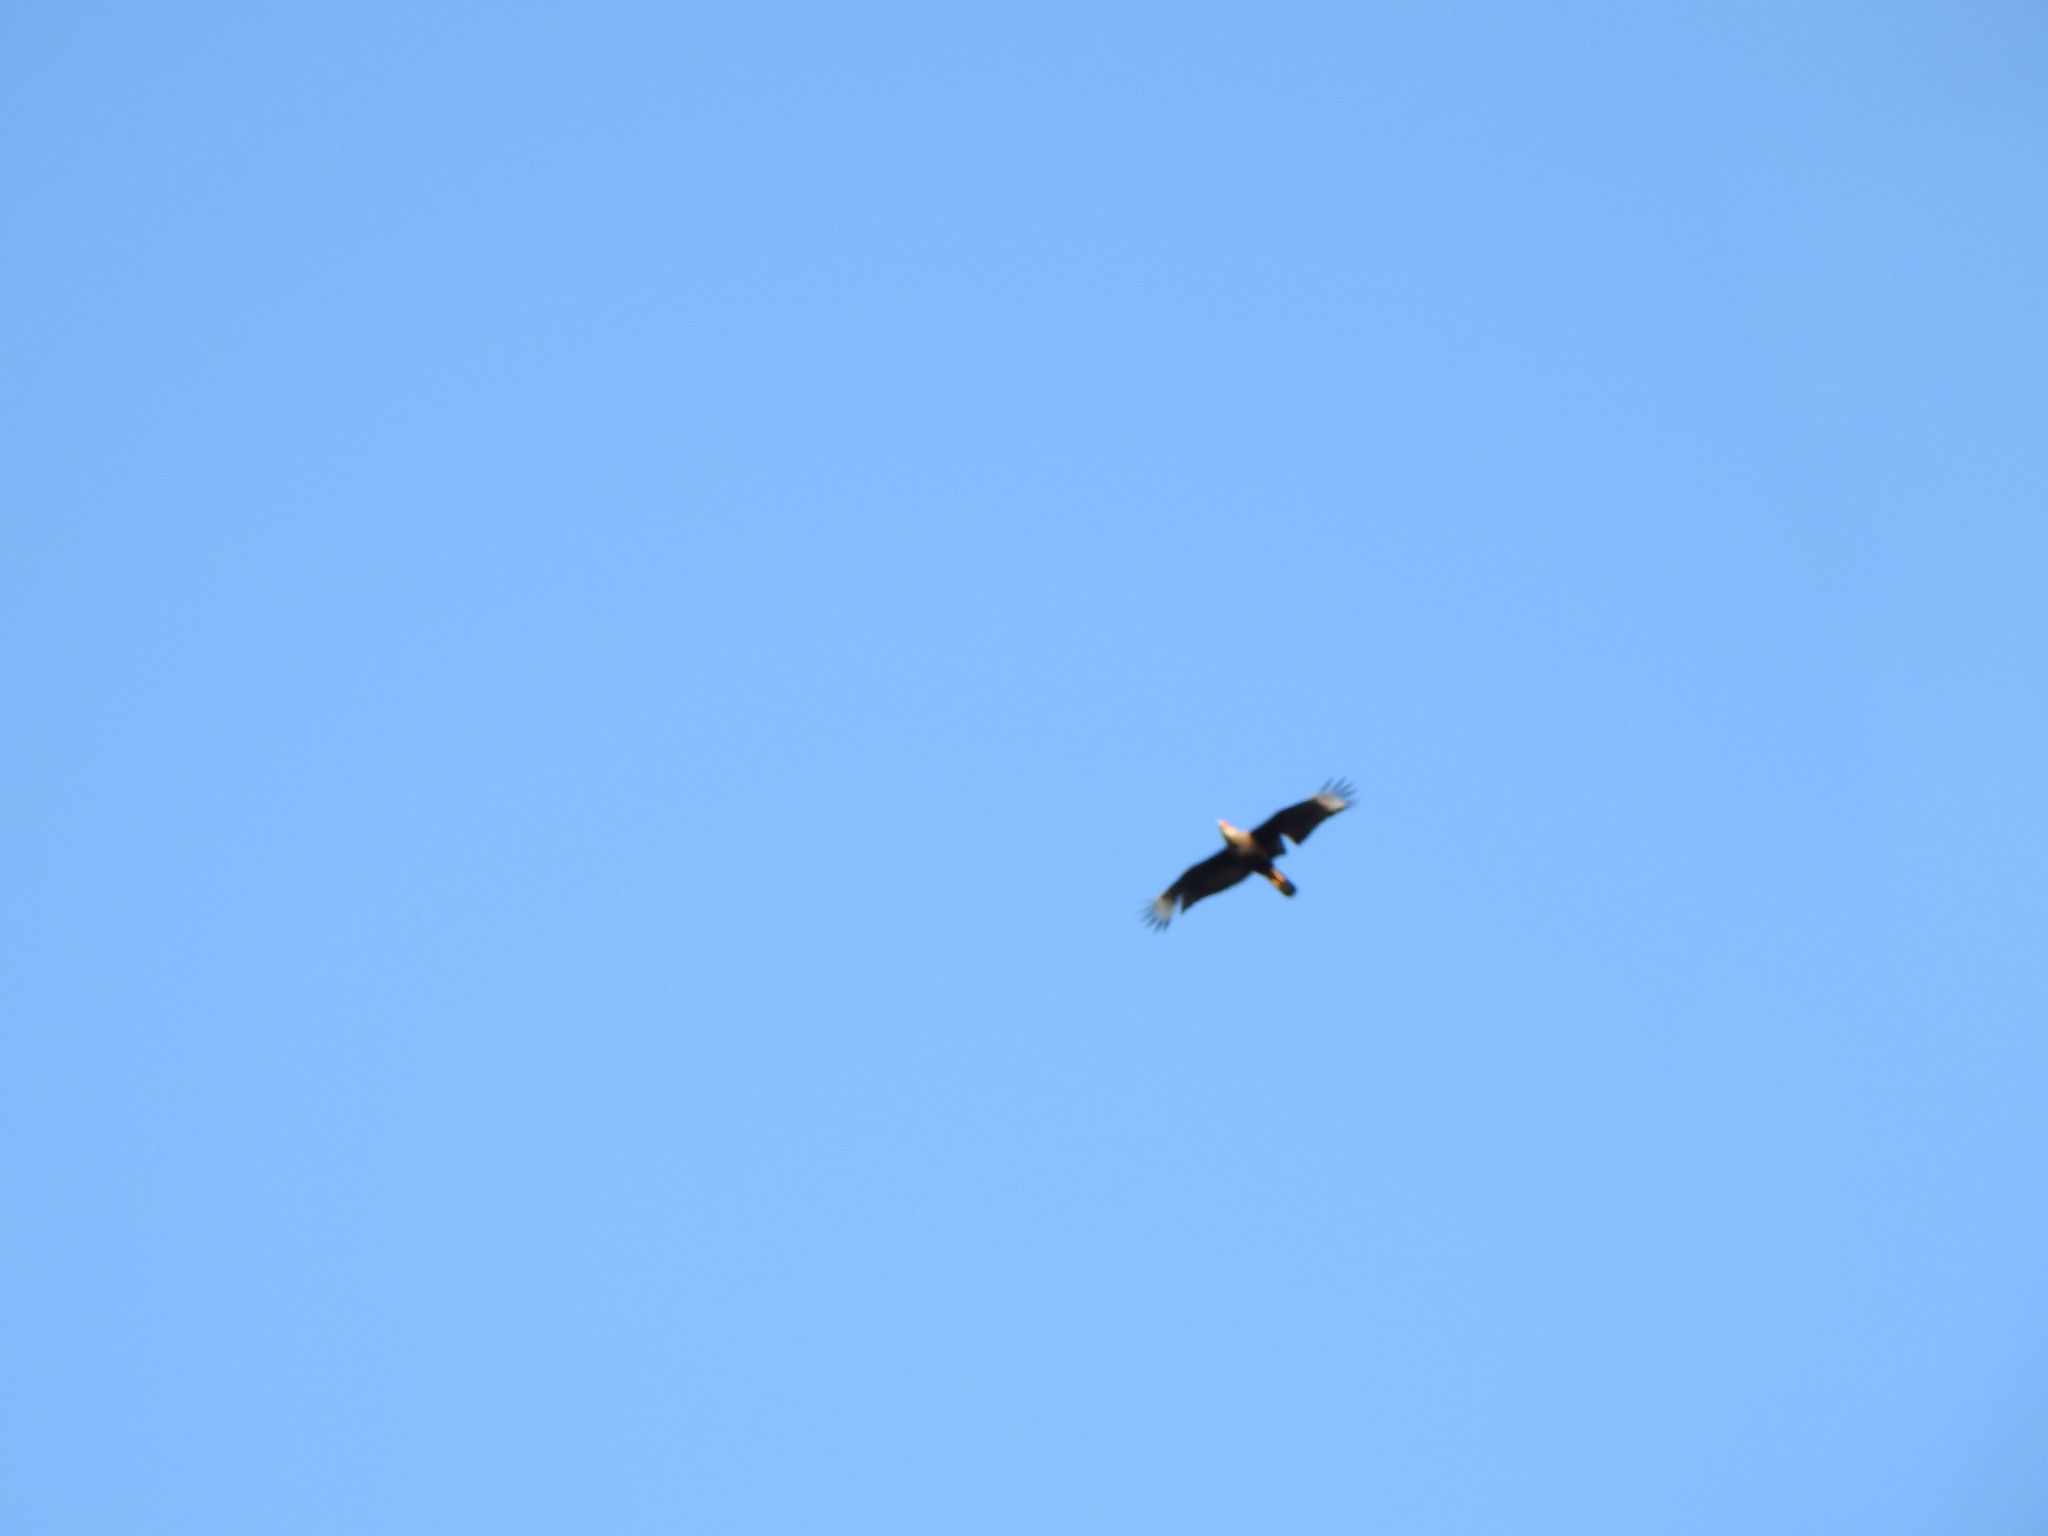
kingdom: Animalia
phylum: Chordata
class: Aves
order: Falconiformes
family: Falconidae
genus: Caracara
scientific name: Caracara plancus
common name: Southern caracara
